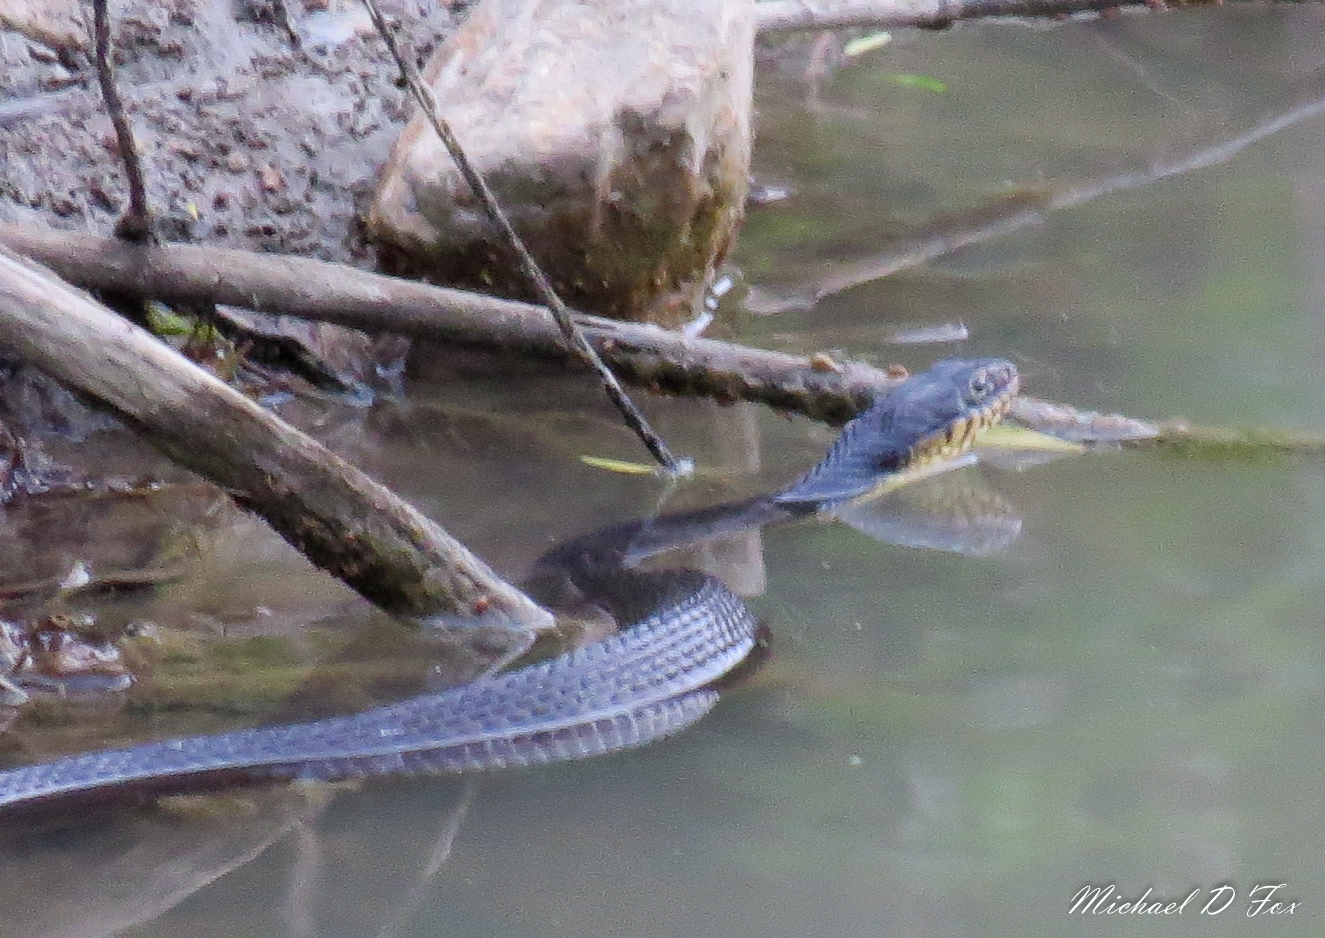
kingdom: Animalia
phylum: Chordata
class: Squamata
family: Colubridae
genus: Nerodia
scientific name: Nerodia erythrogaster
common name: Plainbelly water snake
